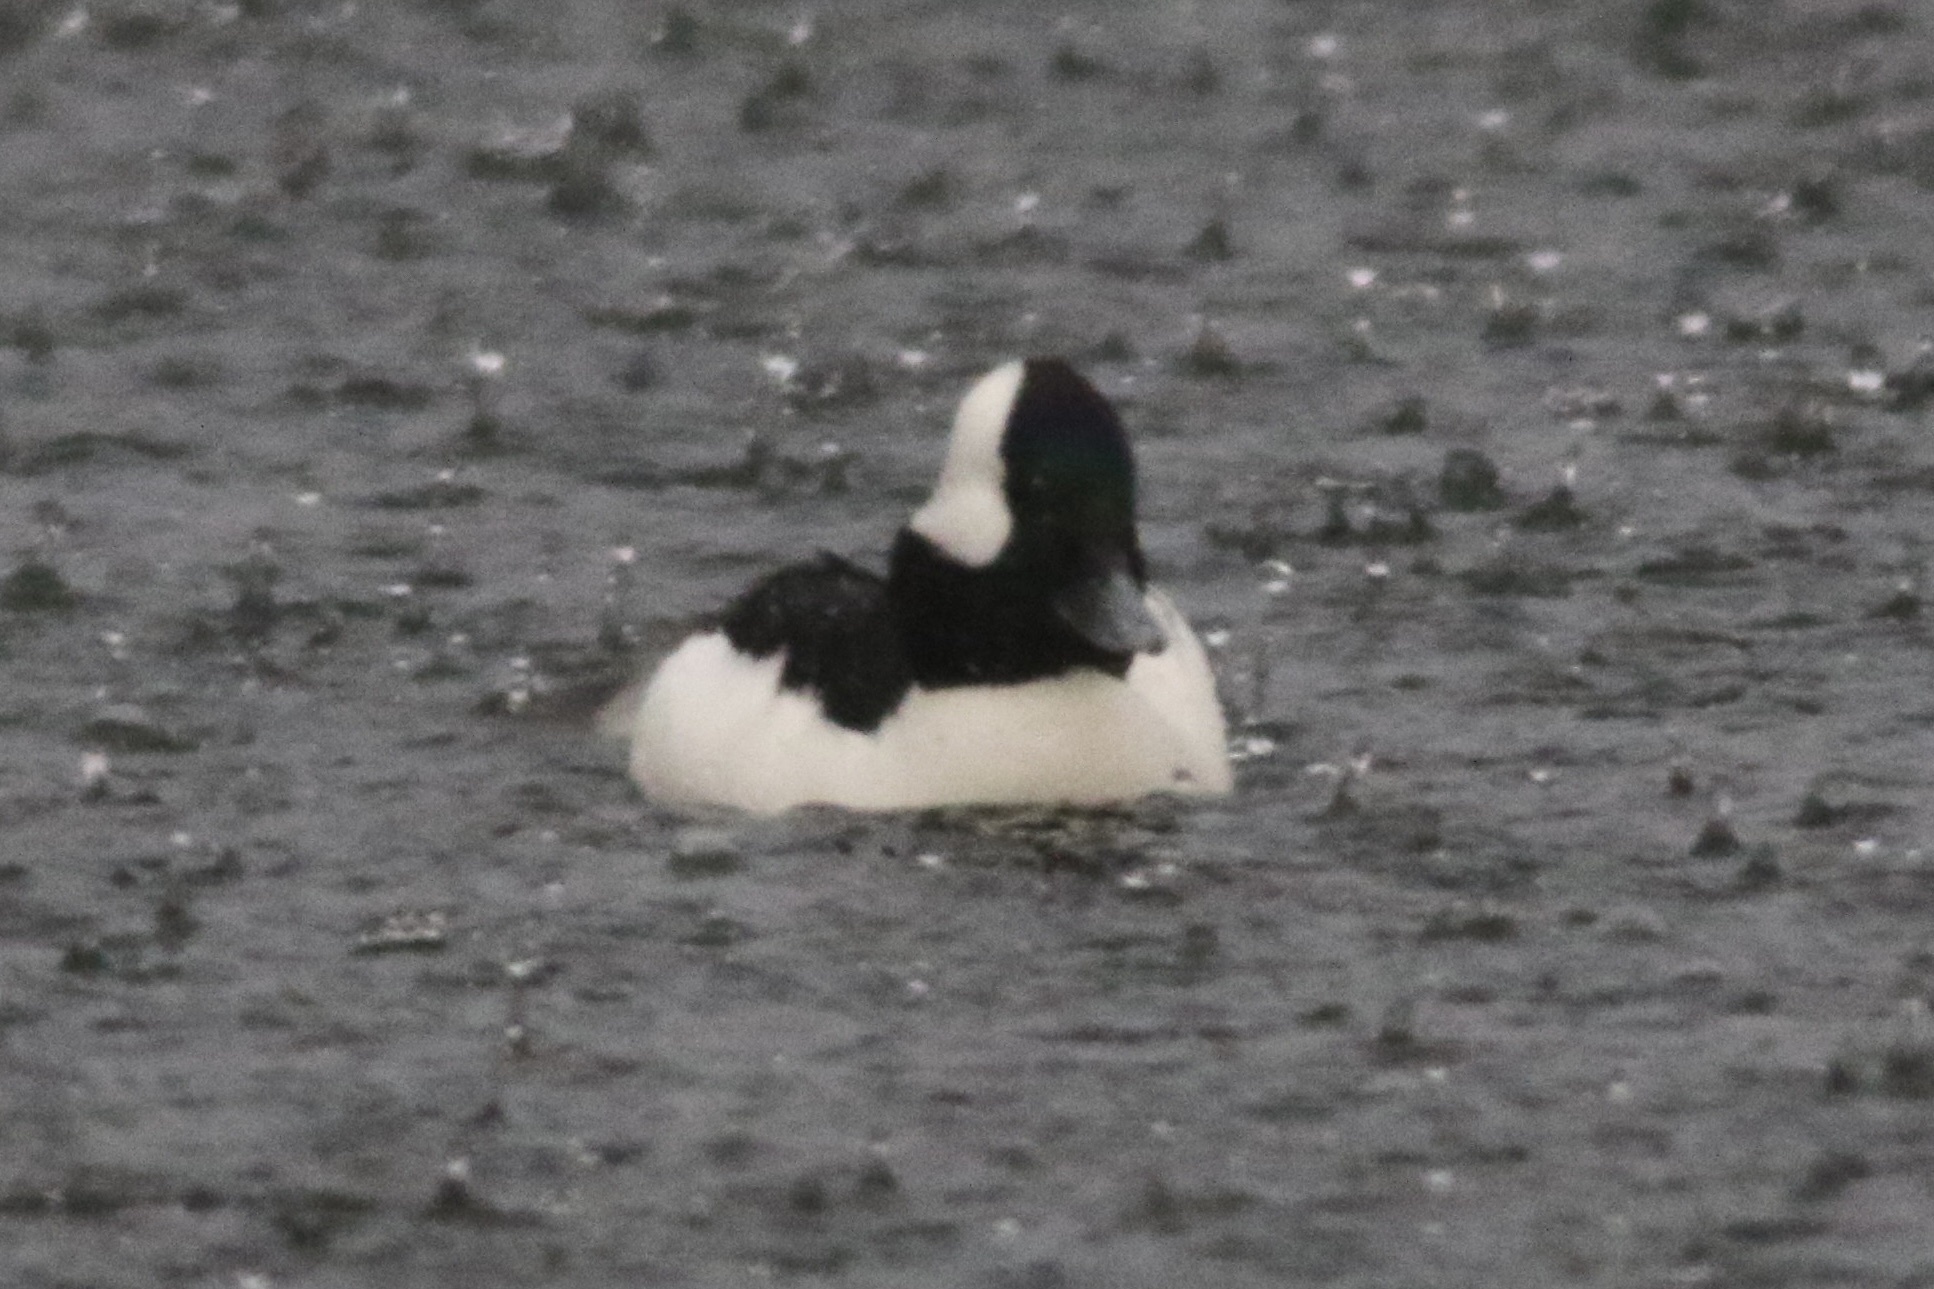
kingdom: Animalia
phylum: Chordata
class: Aves
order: Anseriformes
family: Anatidae
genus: Bucephala
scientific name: Bucephala albeola
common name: Bufflehead
